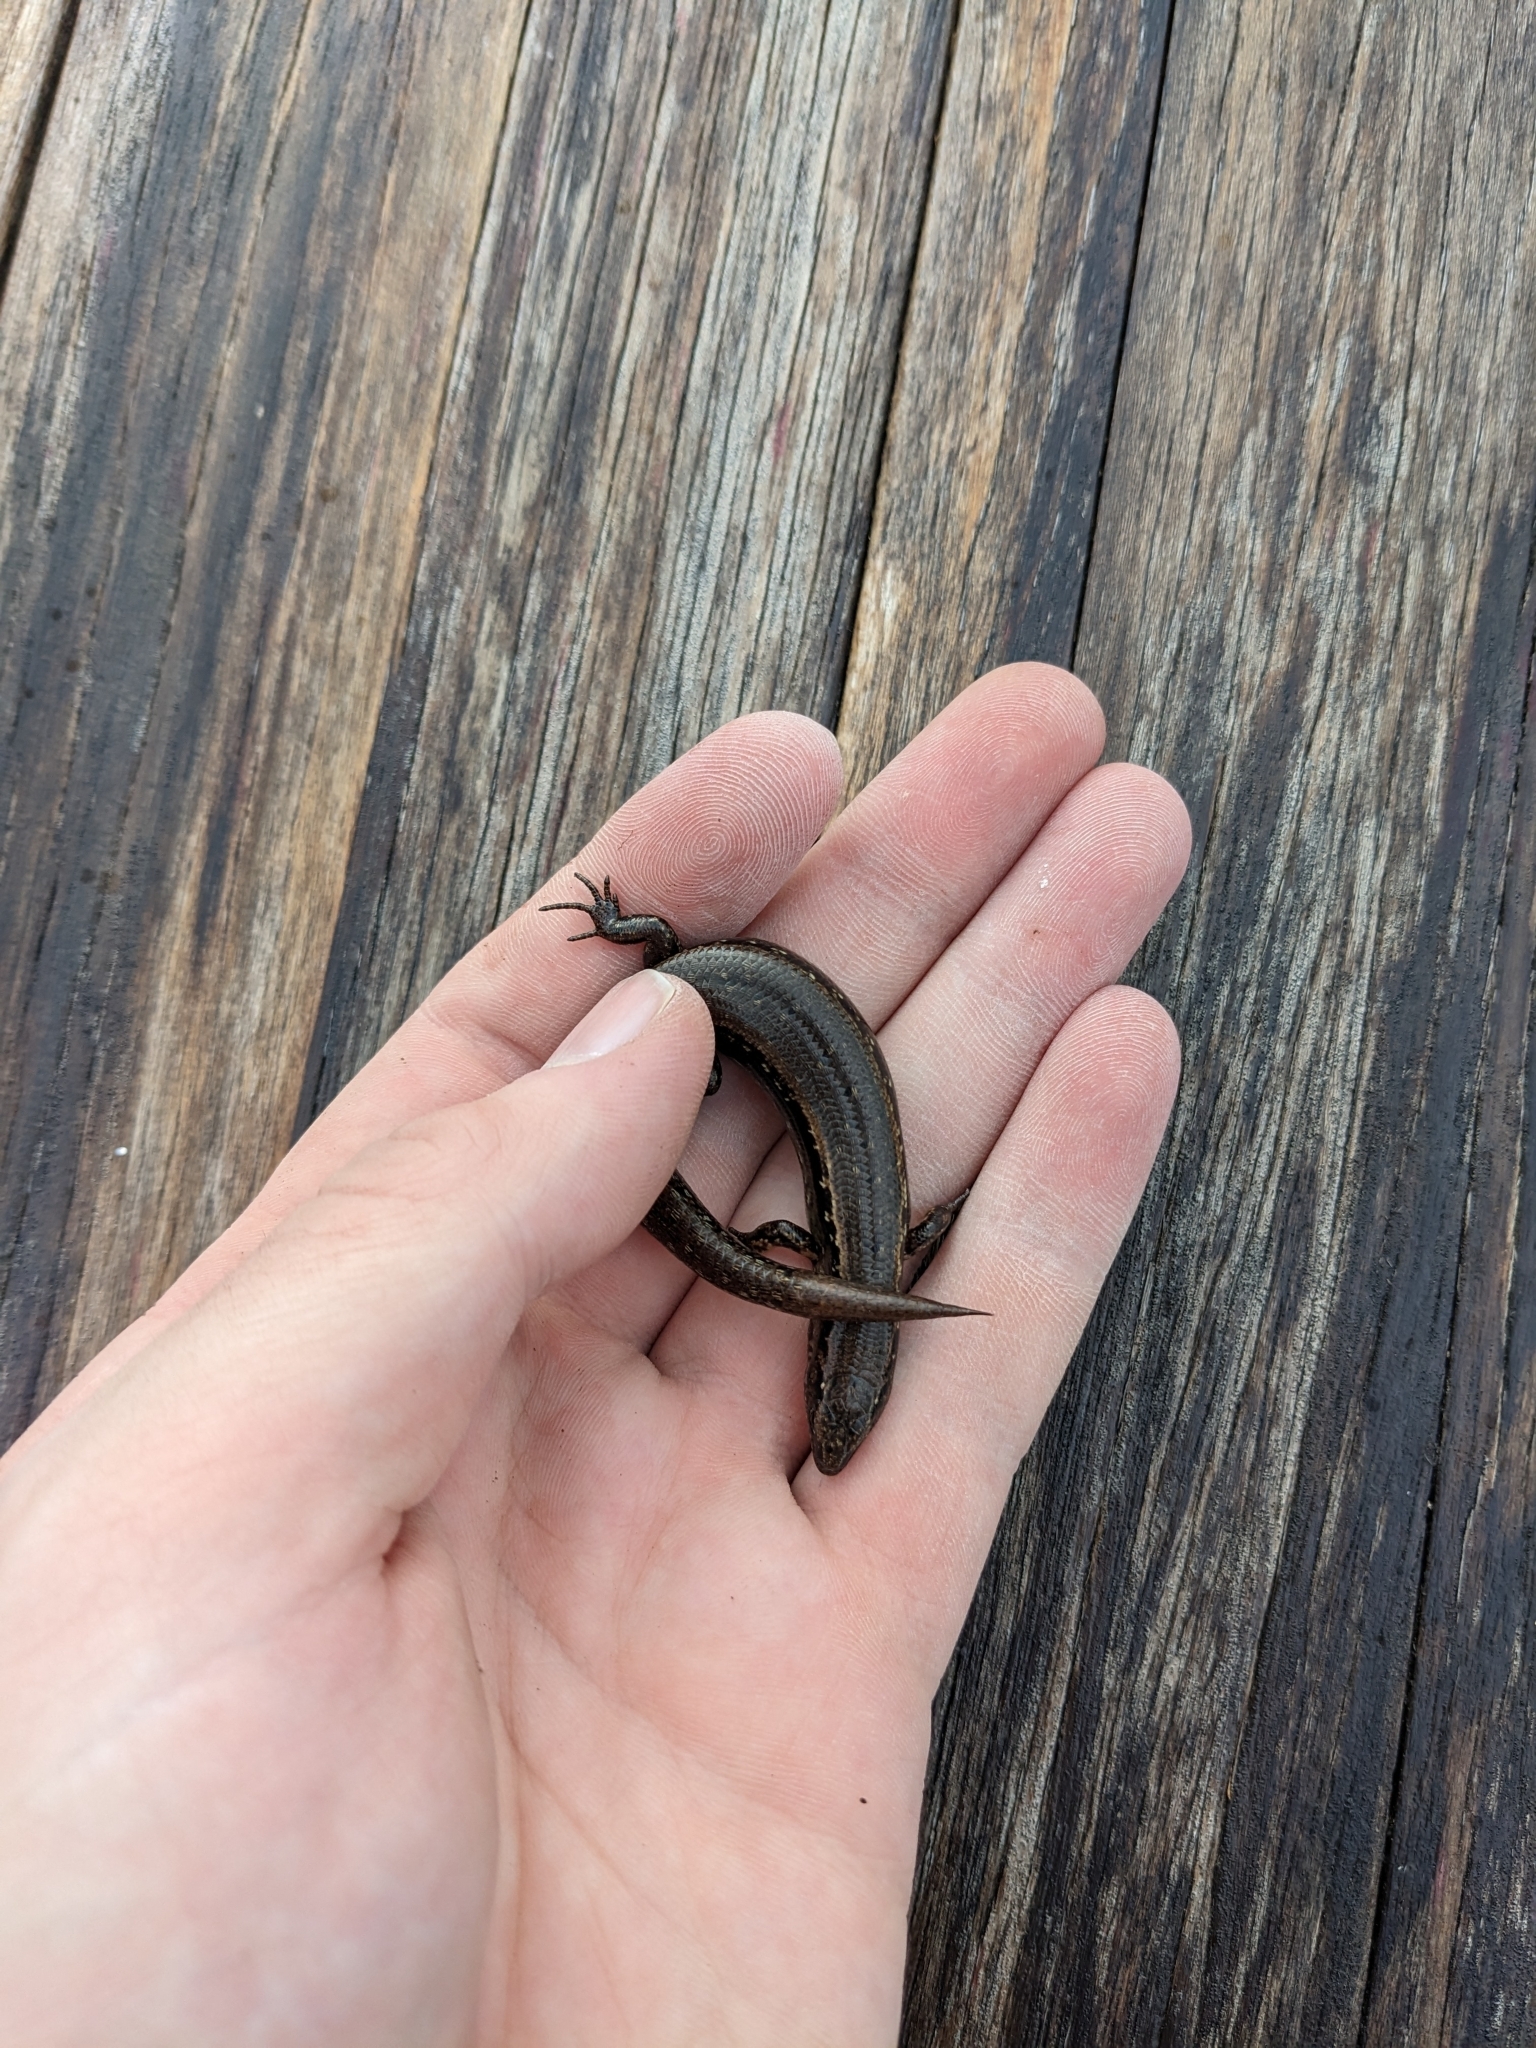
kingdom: Animalia
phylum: Chordata
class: Squamata
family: Scincidae
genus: Oligosoma
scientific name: Oligosoma aeneum
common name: Copper skink
